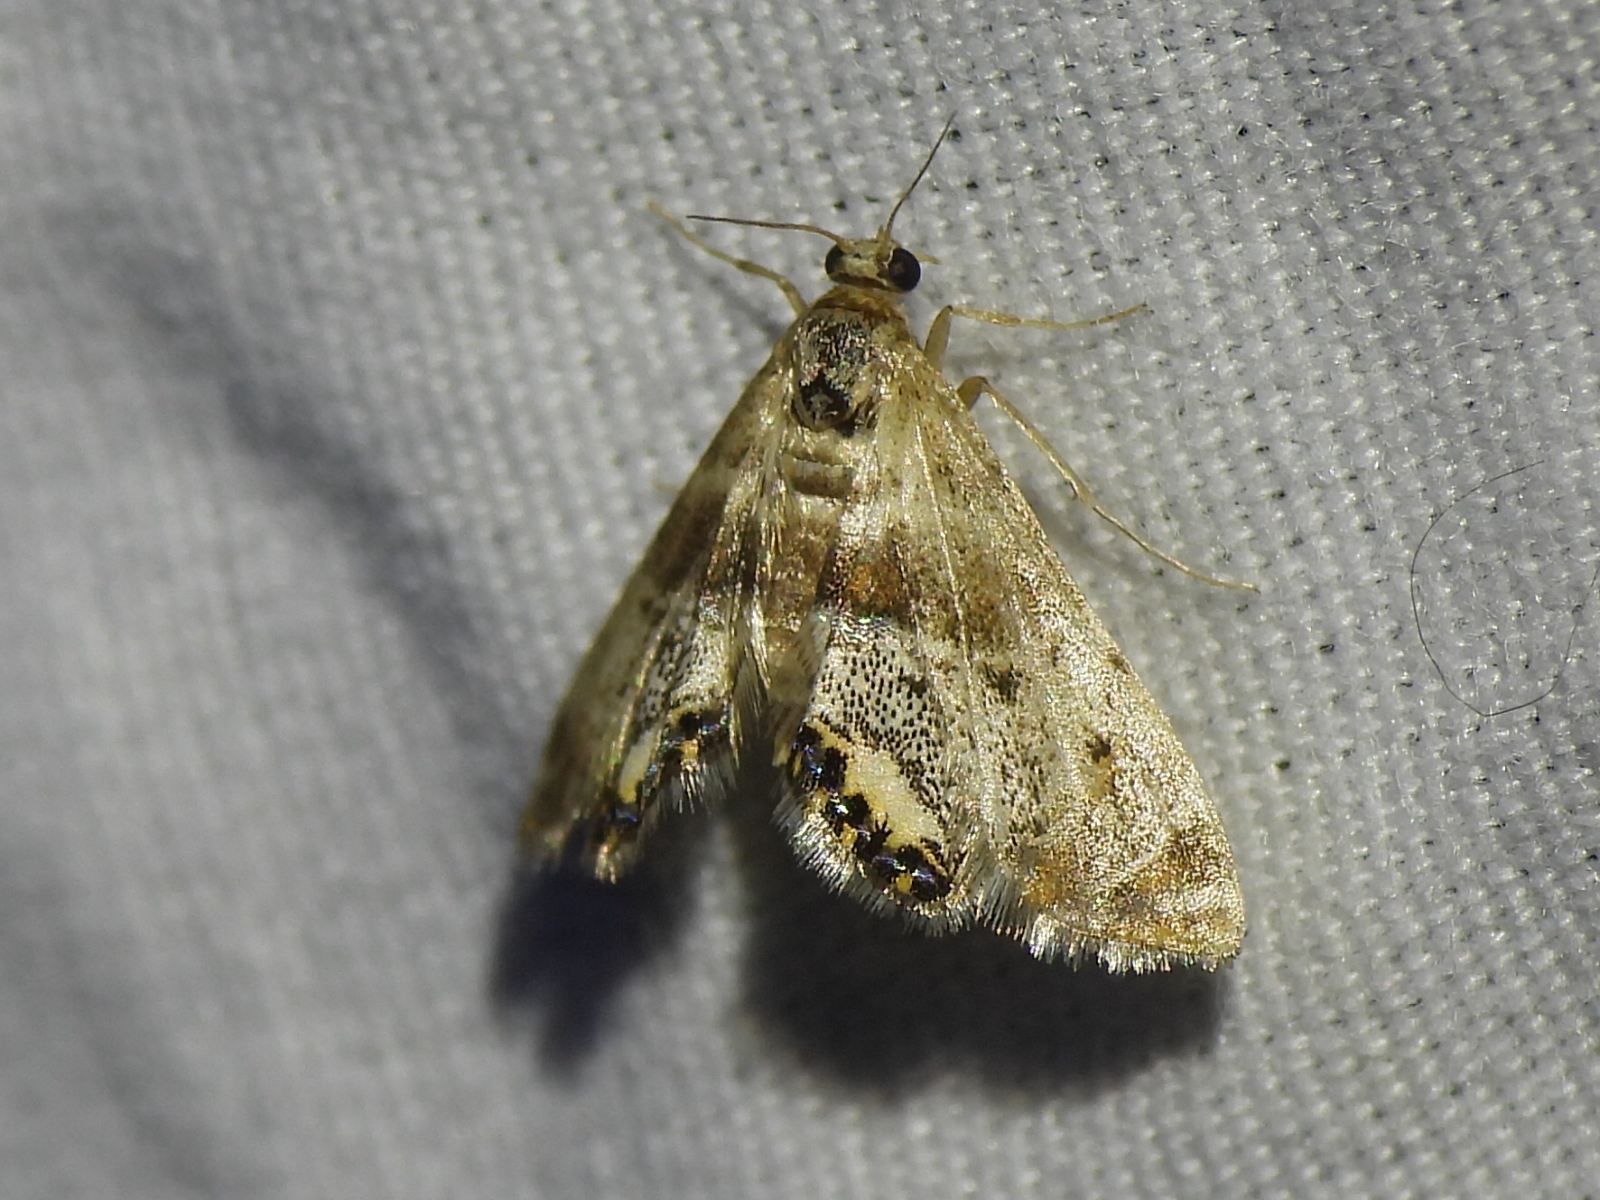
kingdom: Animalia
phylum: Arthropoda
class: Insecta
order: Lepidoptera
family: Crambidae
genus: Petrophila
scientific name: Petrophila fulicalis
